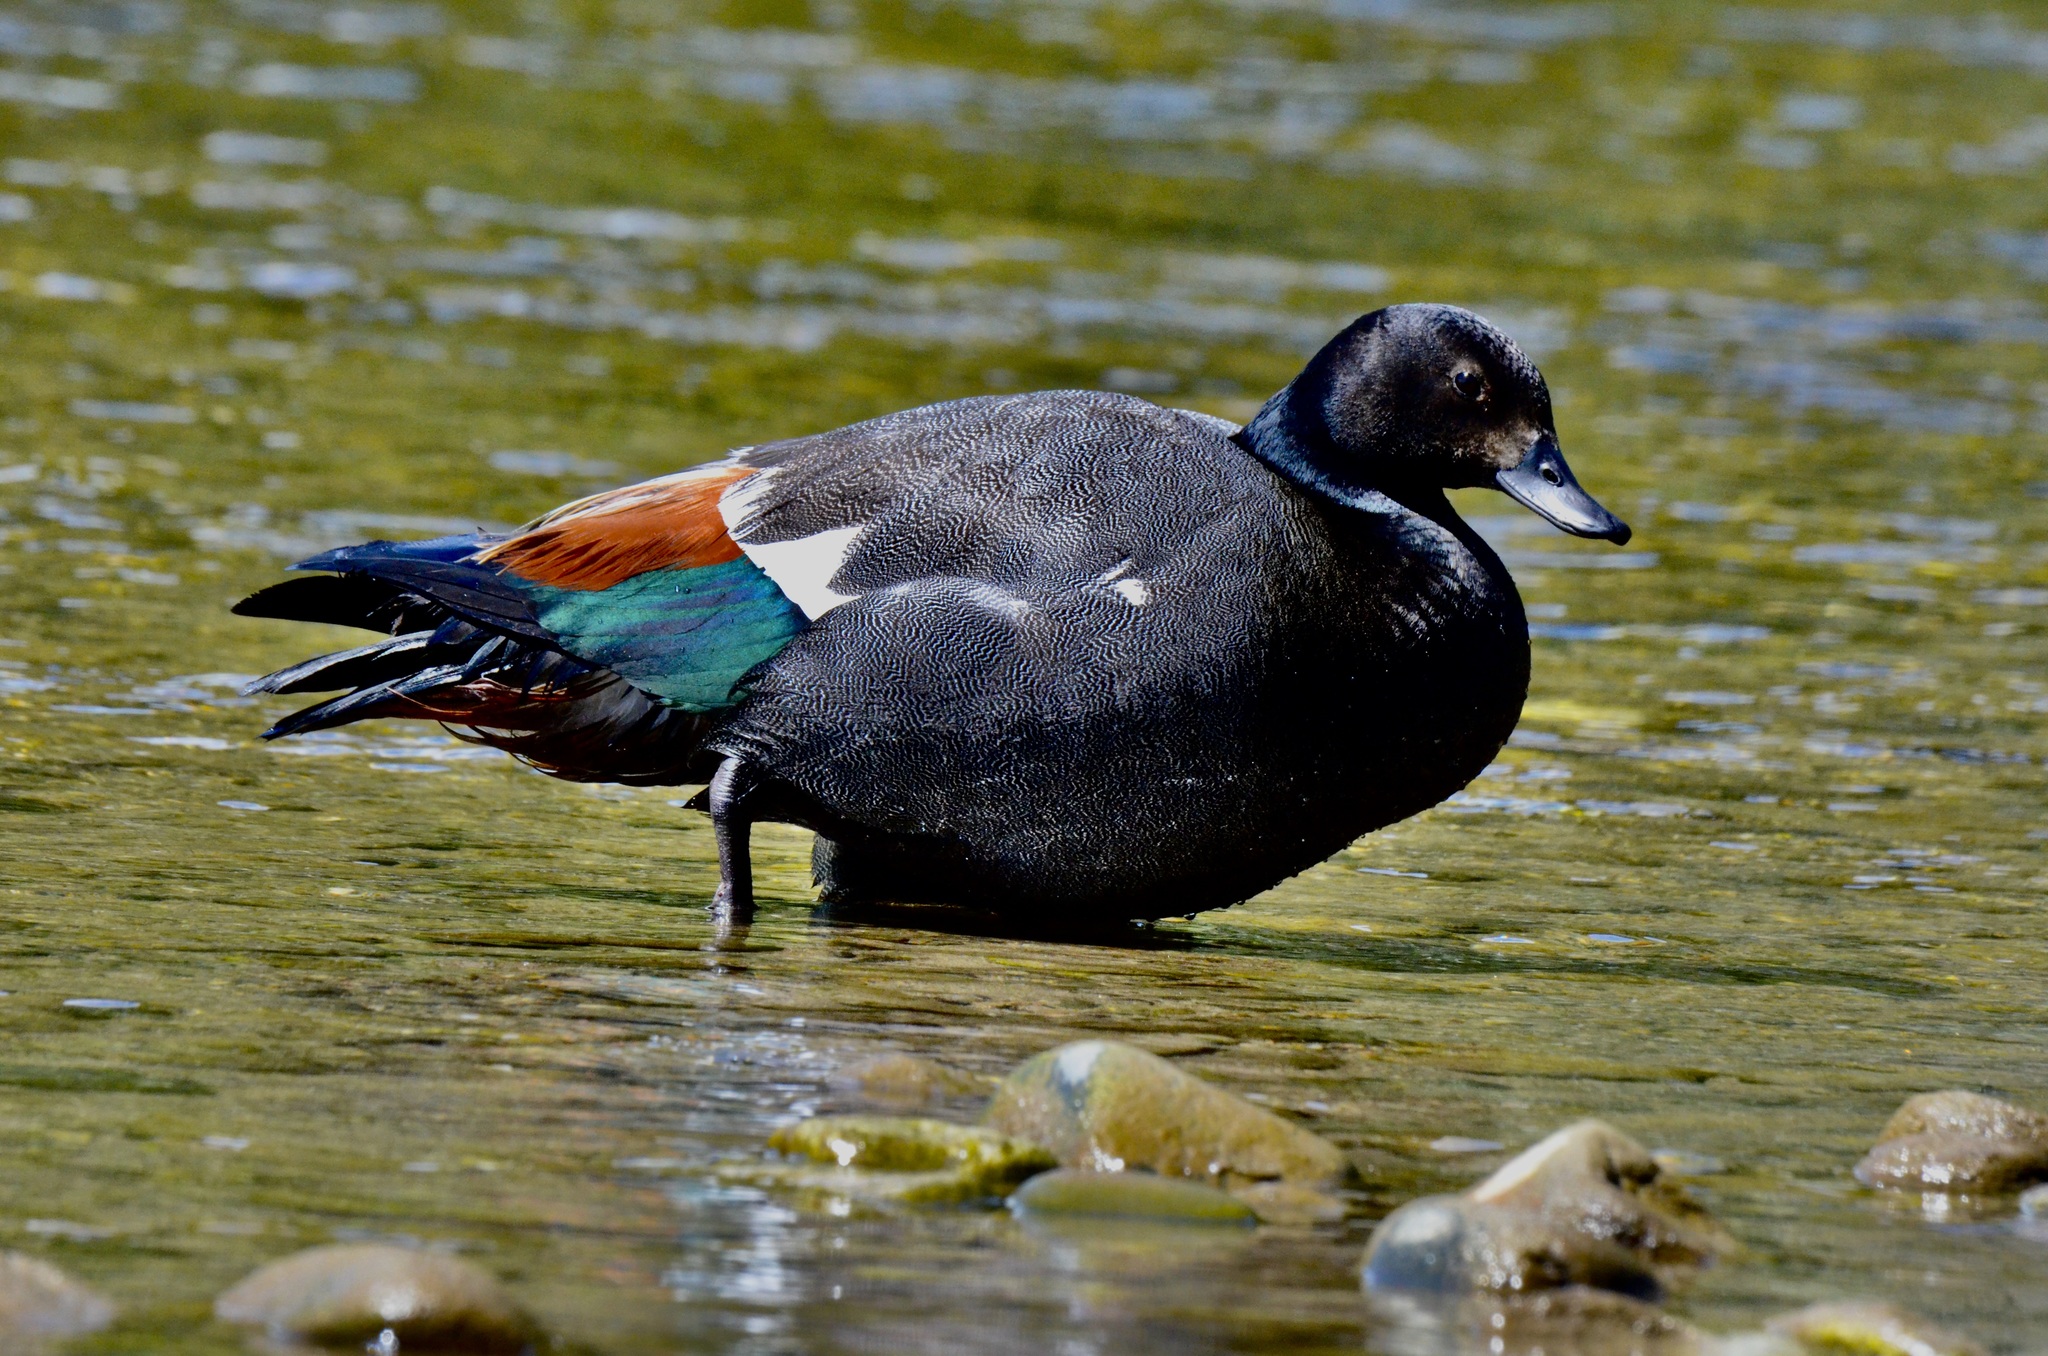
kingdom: Animalia
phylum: Chordata
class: Aves
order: Anseriformes
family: Anatidae
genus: Tadorna
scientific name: Tadorna variegata
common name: Paradise shelduck
